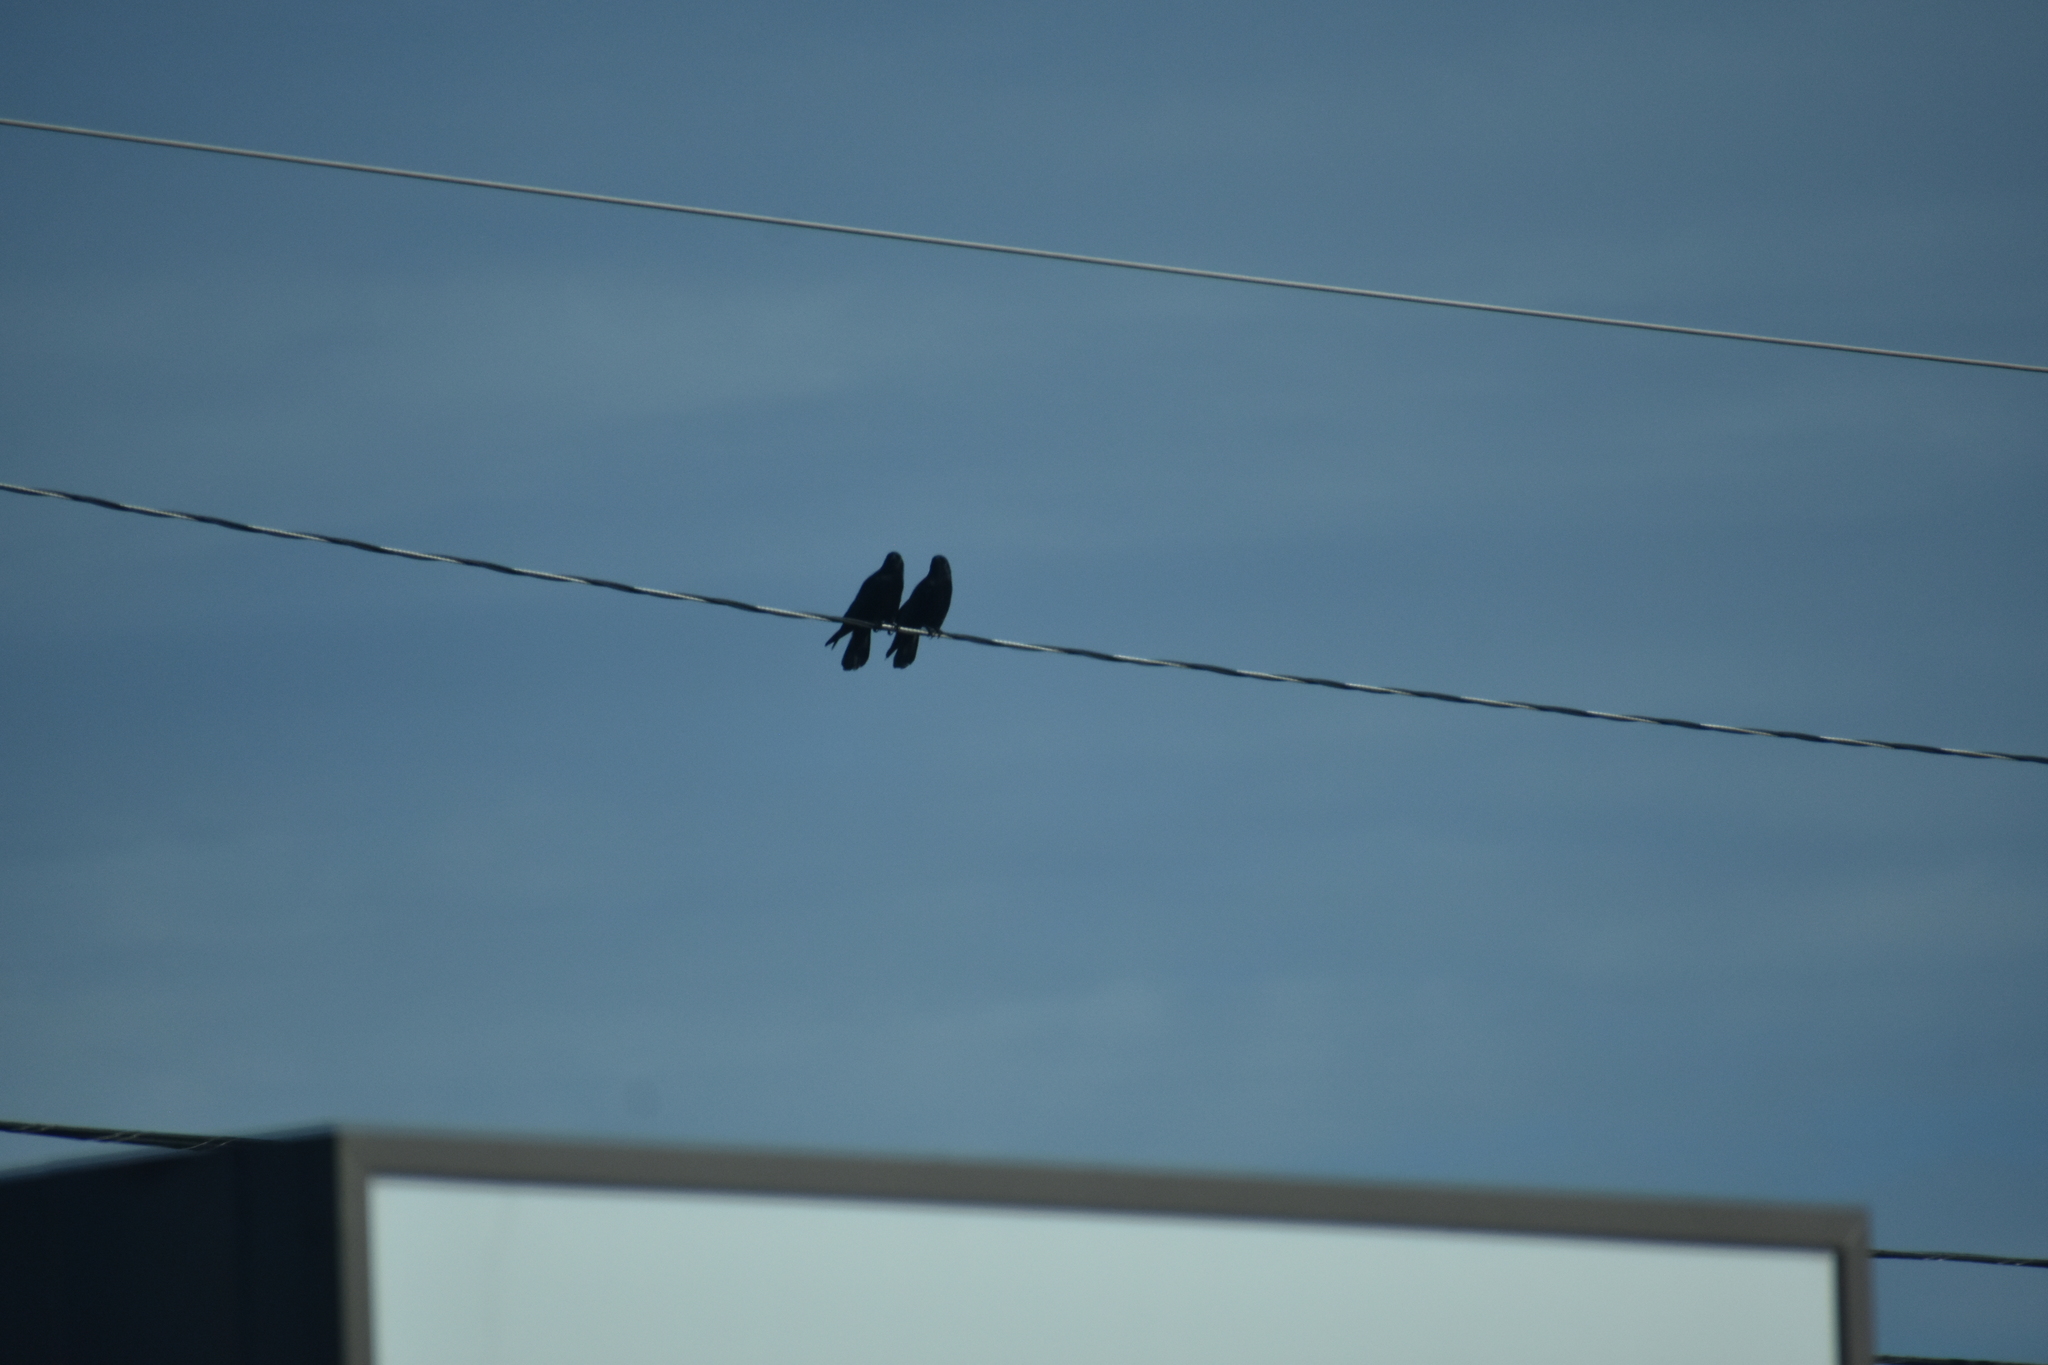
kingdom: Animalia
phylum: Chordata
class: Aves
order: Passeriformes
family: Corvidae
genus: Corvus
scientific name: Corvus brachyrhynchos
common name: American crow
